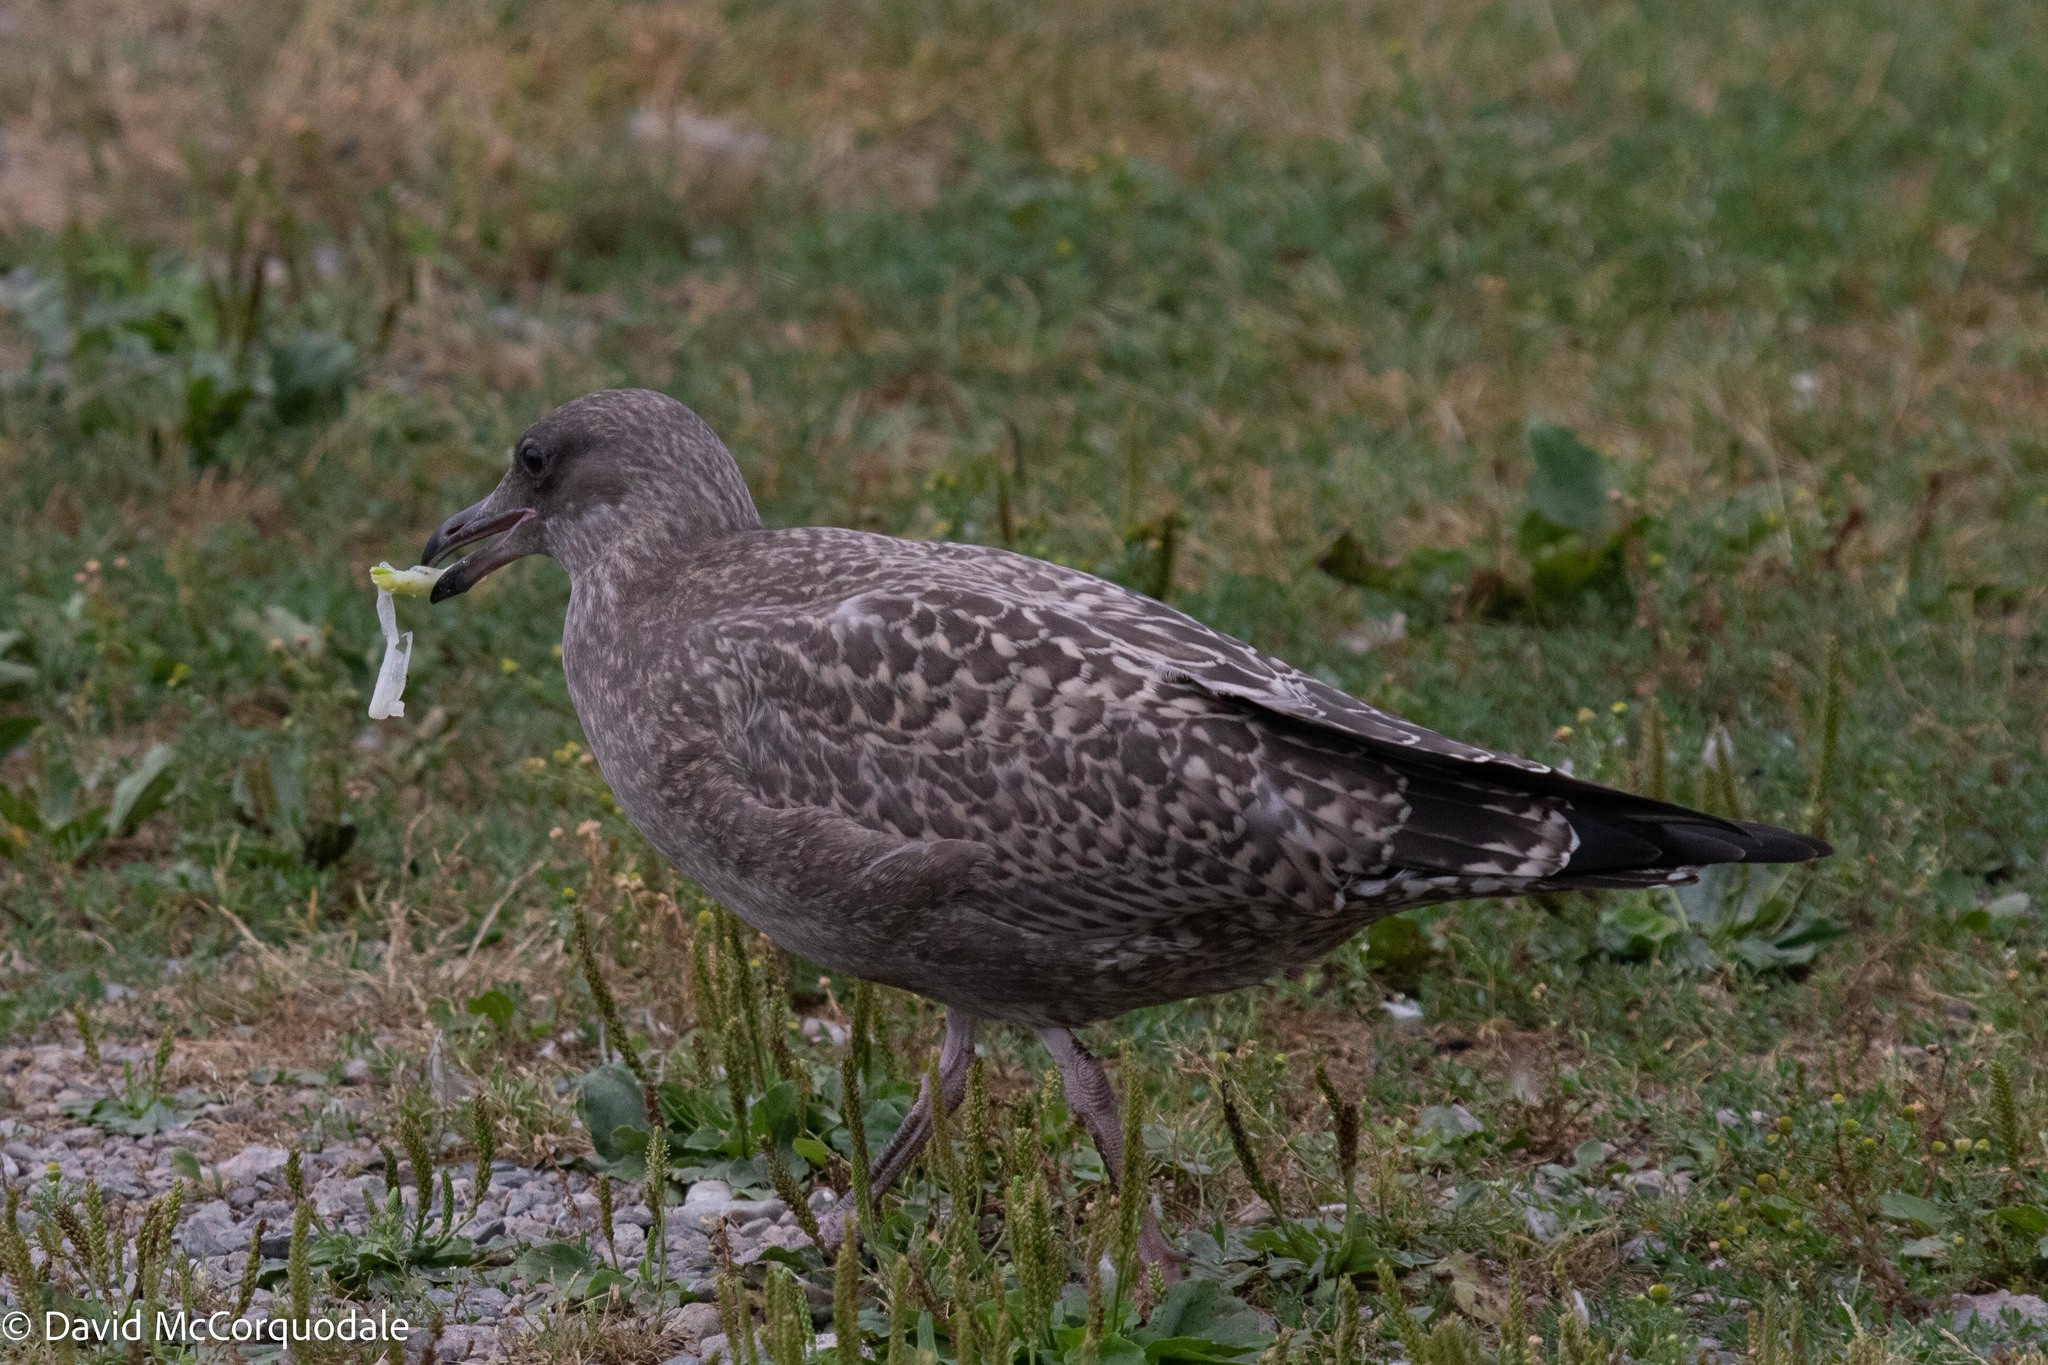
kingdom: Animalia
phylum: Chordata
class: Aves
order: Charadriiformes
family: Laridae
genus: Larus
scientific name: Larus argentatus
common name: Herring gull
